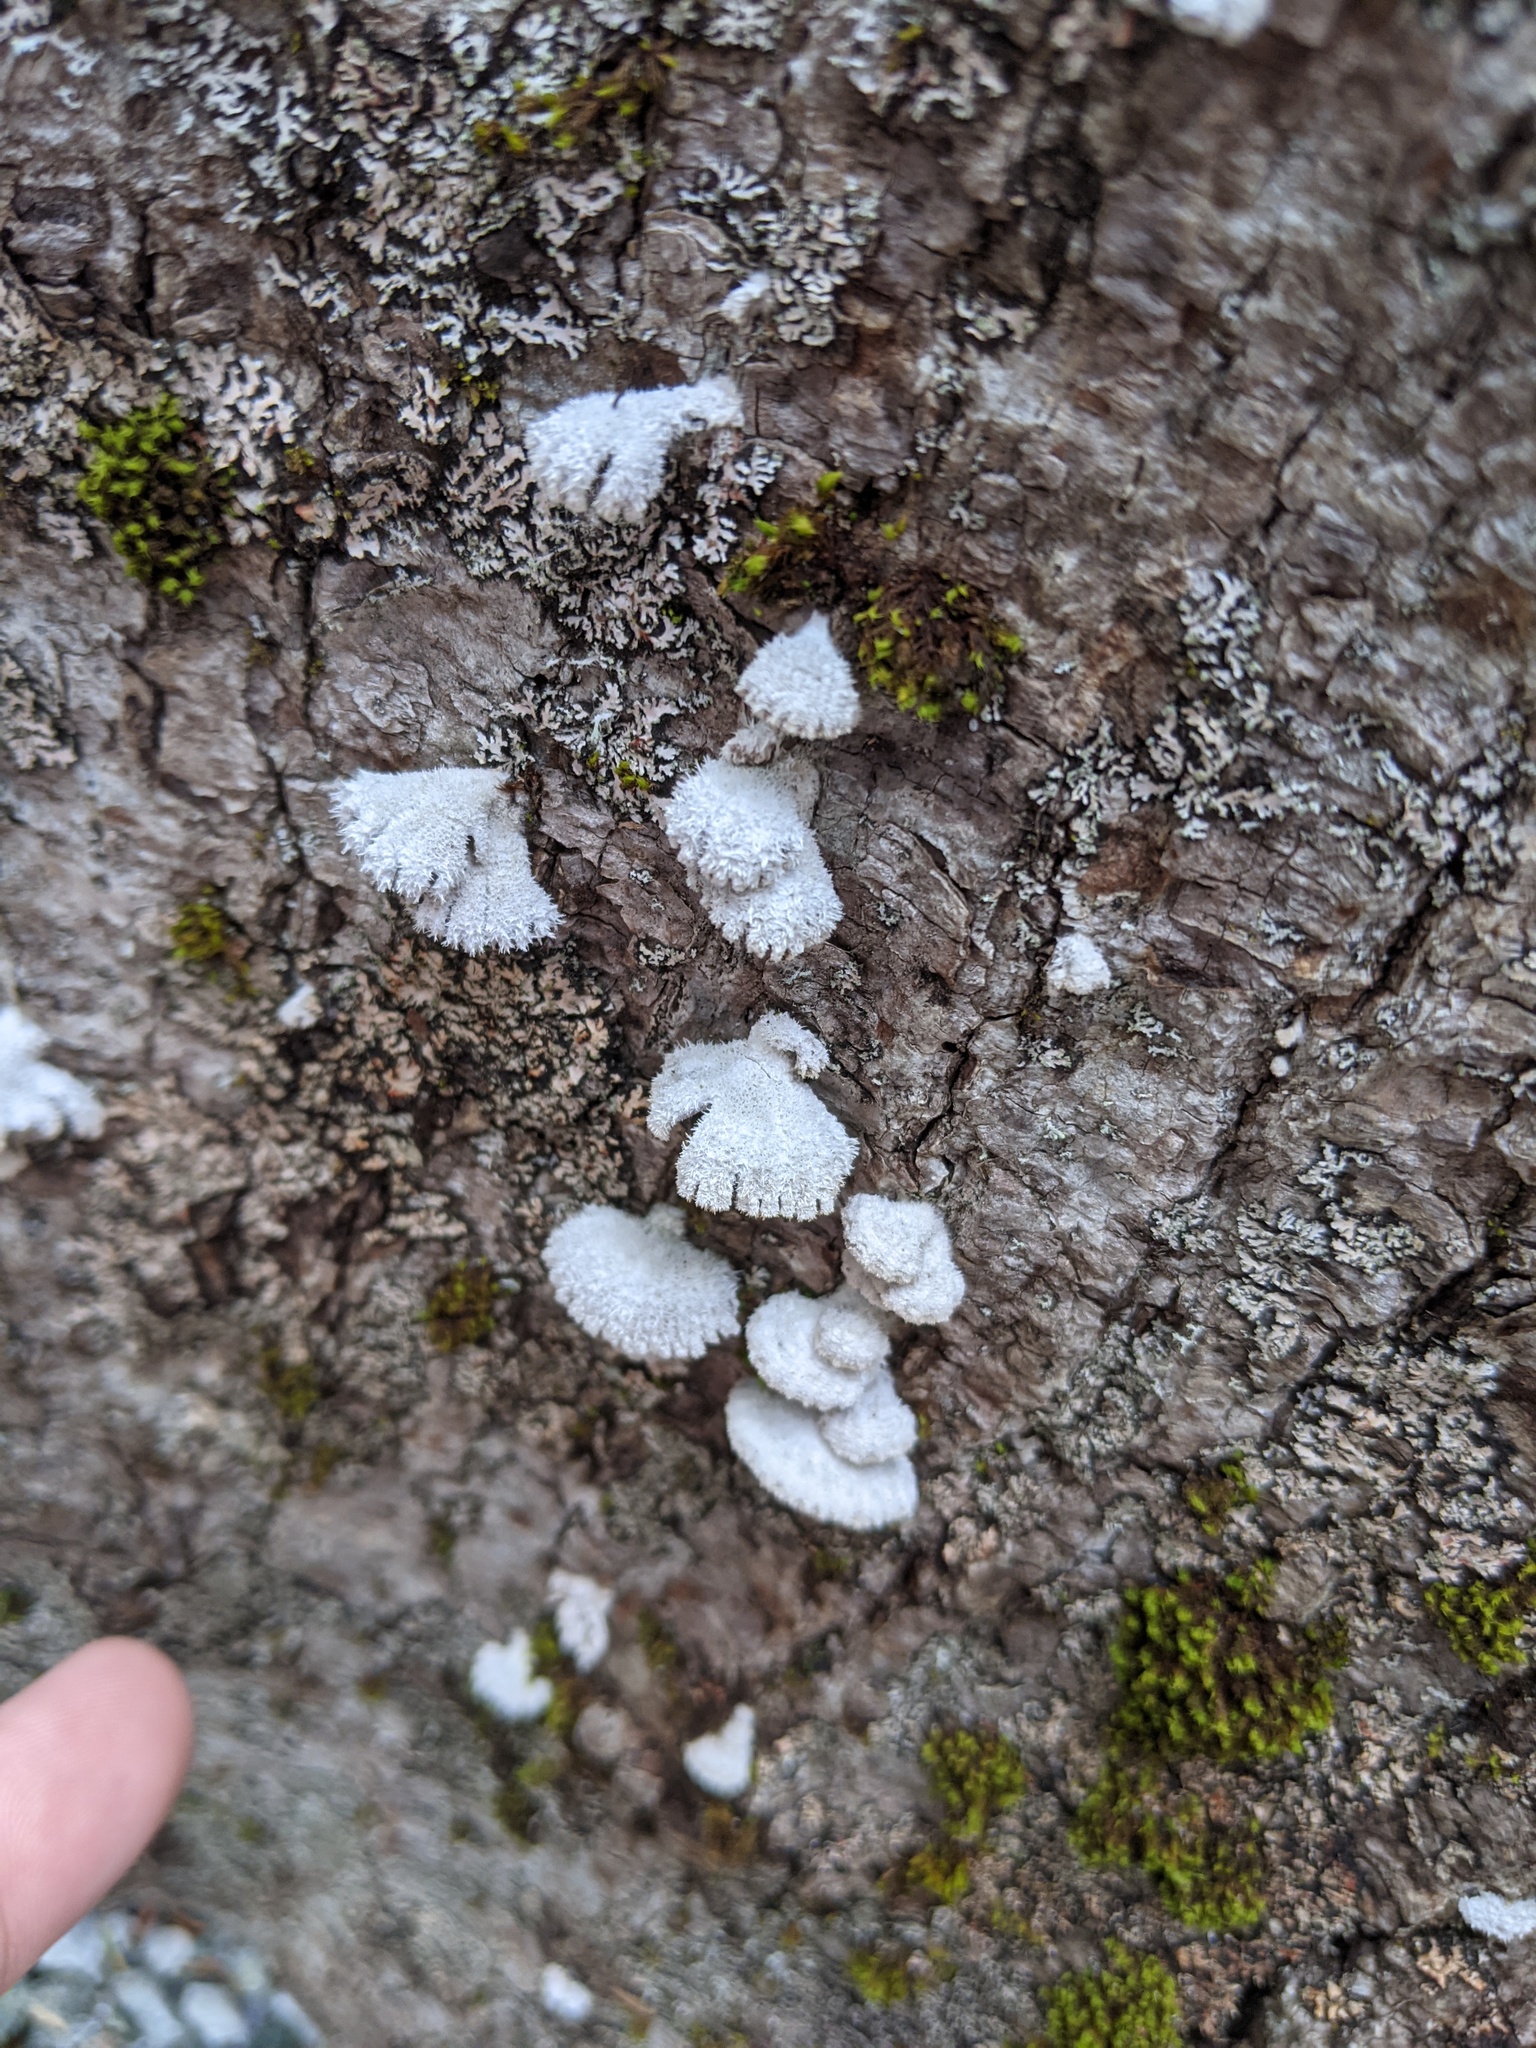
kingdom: Fungi
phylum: Basidiomycota
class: Agaricomycetes
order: Agaricales
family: Schizophyllaceae
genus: Schizophyllum
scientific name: Schizophyllum commune
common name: Common porecrust
